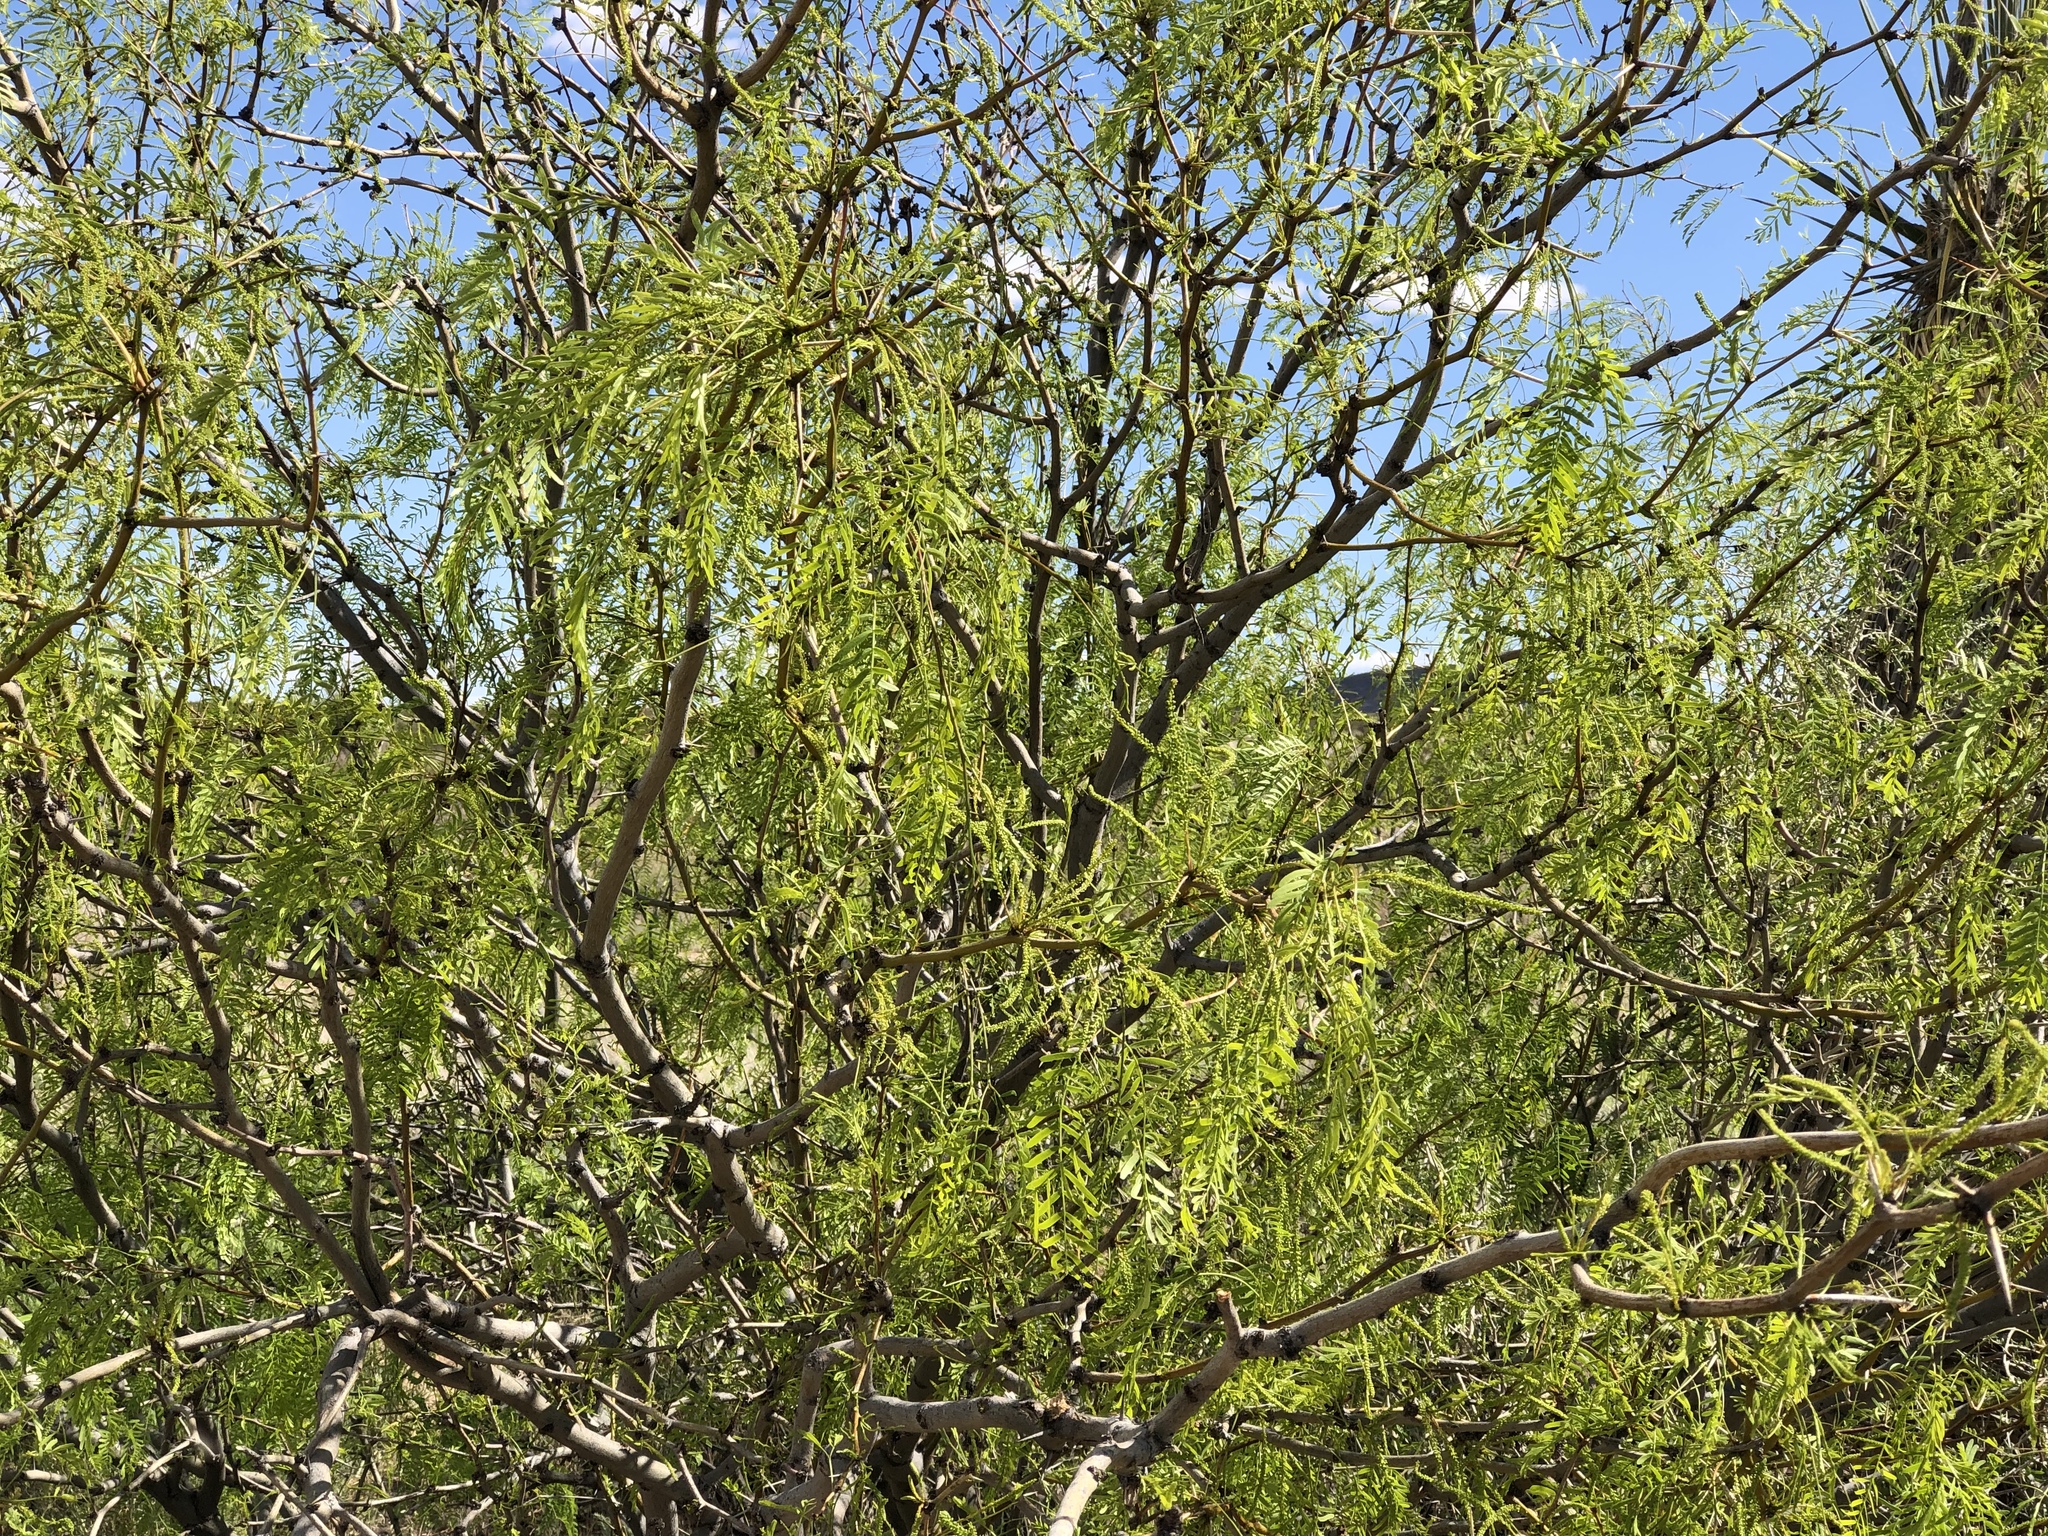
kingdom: Plantae
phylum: Tracheophyta
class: Magnoliopsida
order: Fabales
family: Fabaceae
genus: Prosopis
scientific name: Prosopis glandulosa
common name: Honey mesquite
